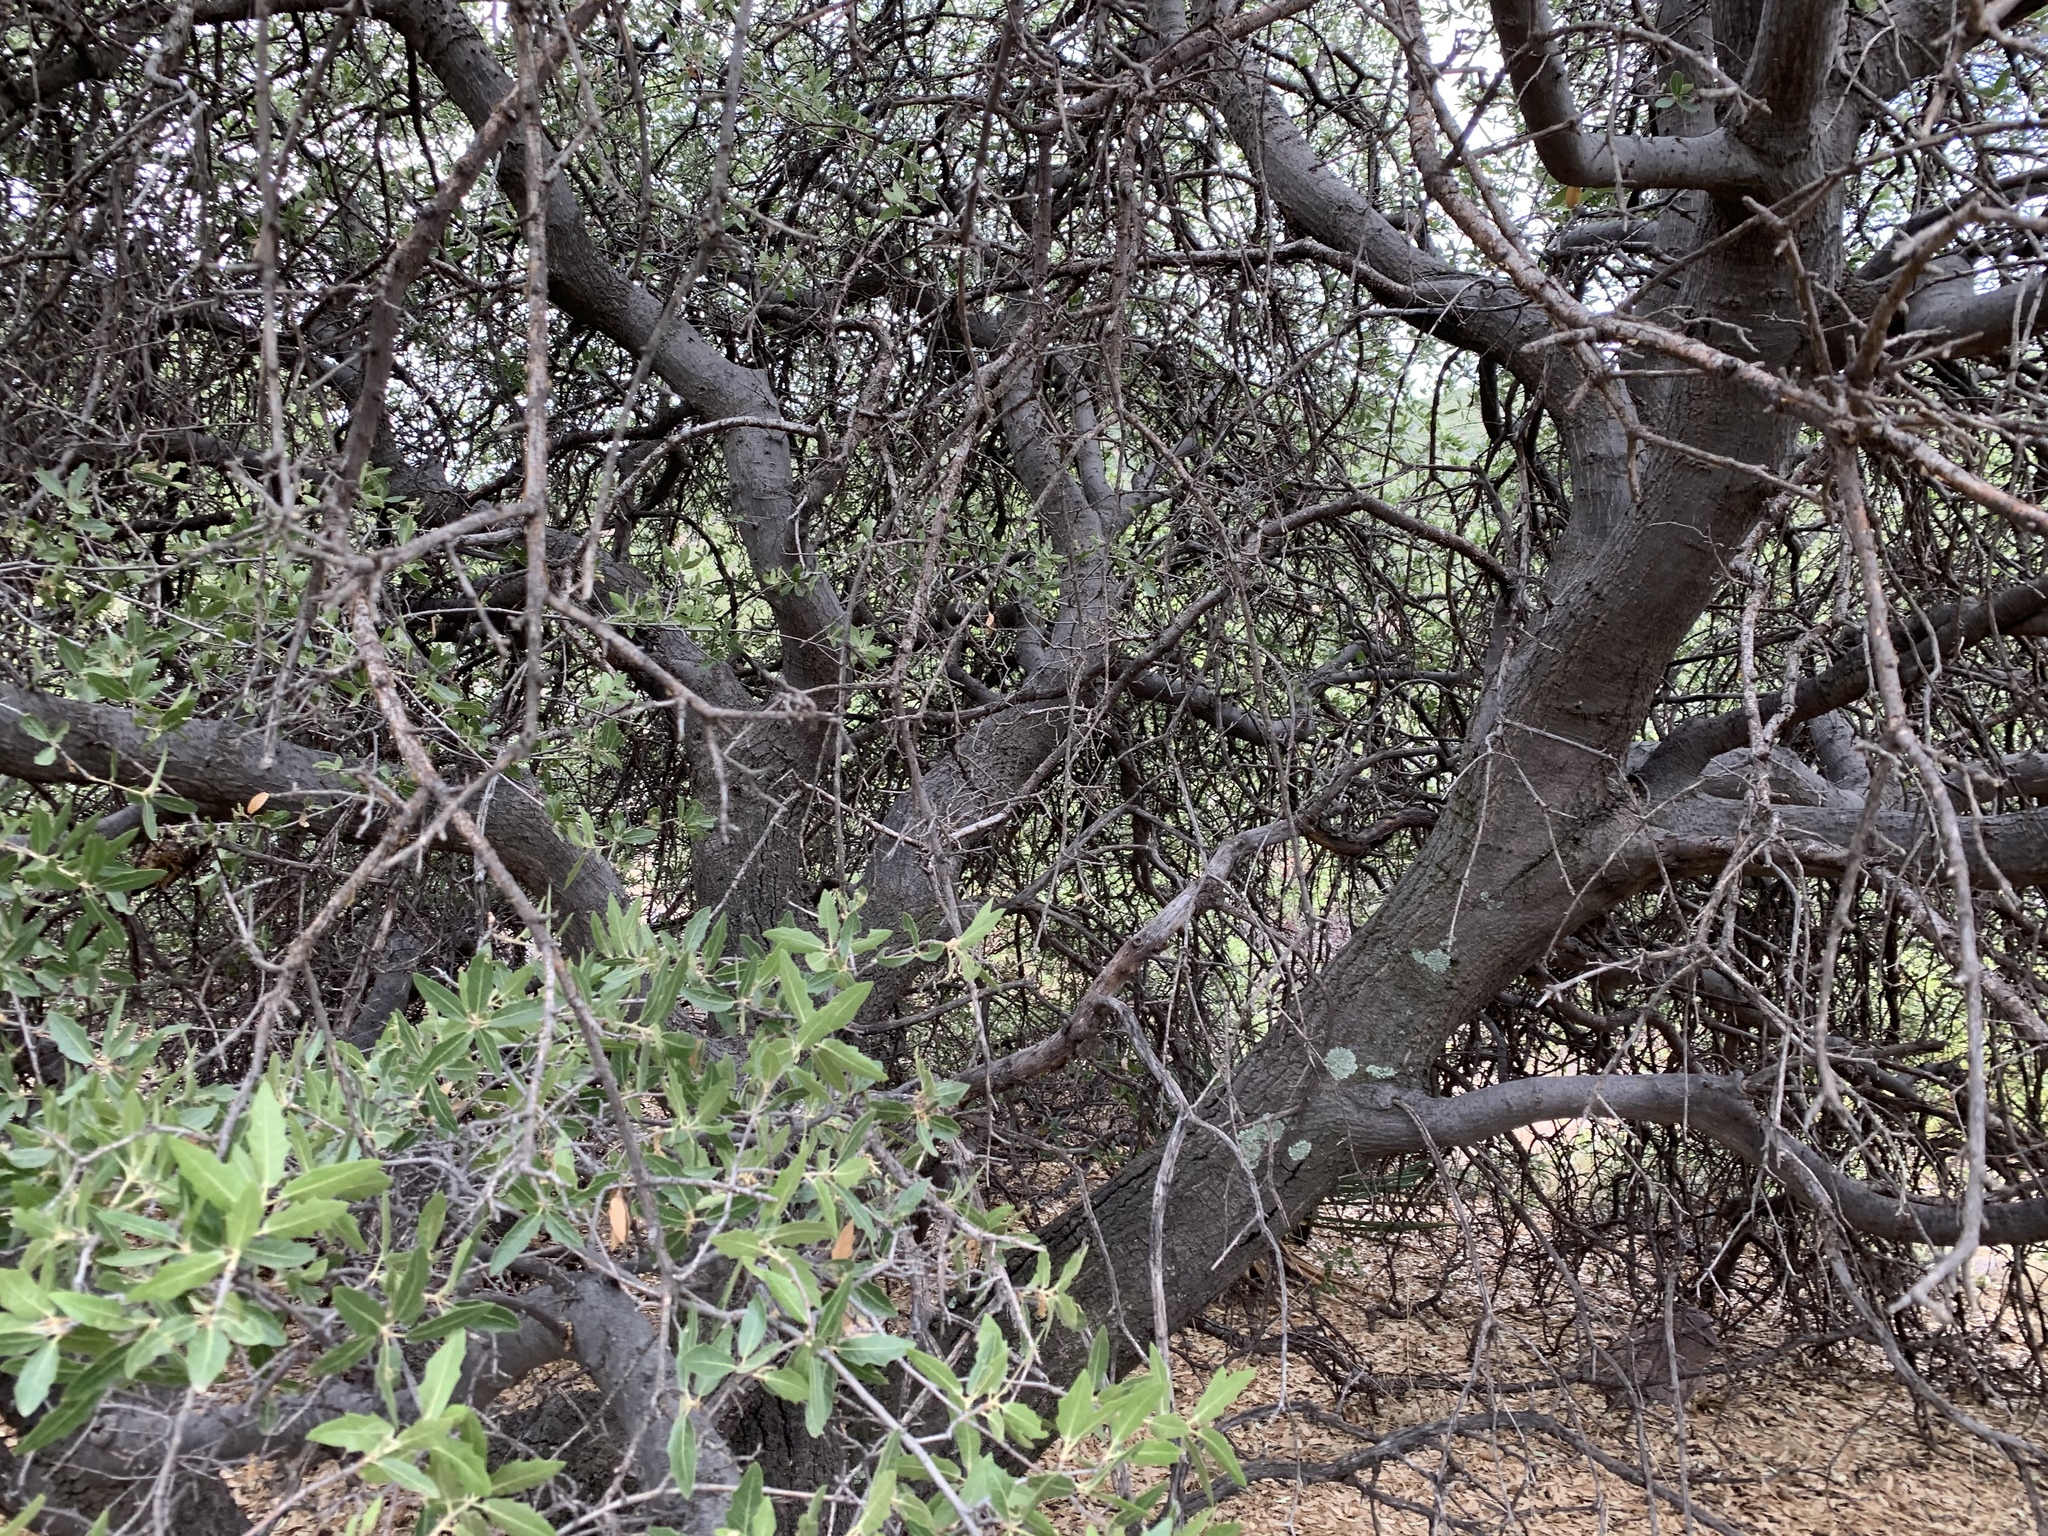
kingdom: Plantae
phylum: Tracheophyta
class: Magnoliopsida
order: Fagales
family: Fagaceae
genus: Quercus
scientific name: Quercus emoryi
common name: Emory oak
